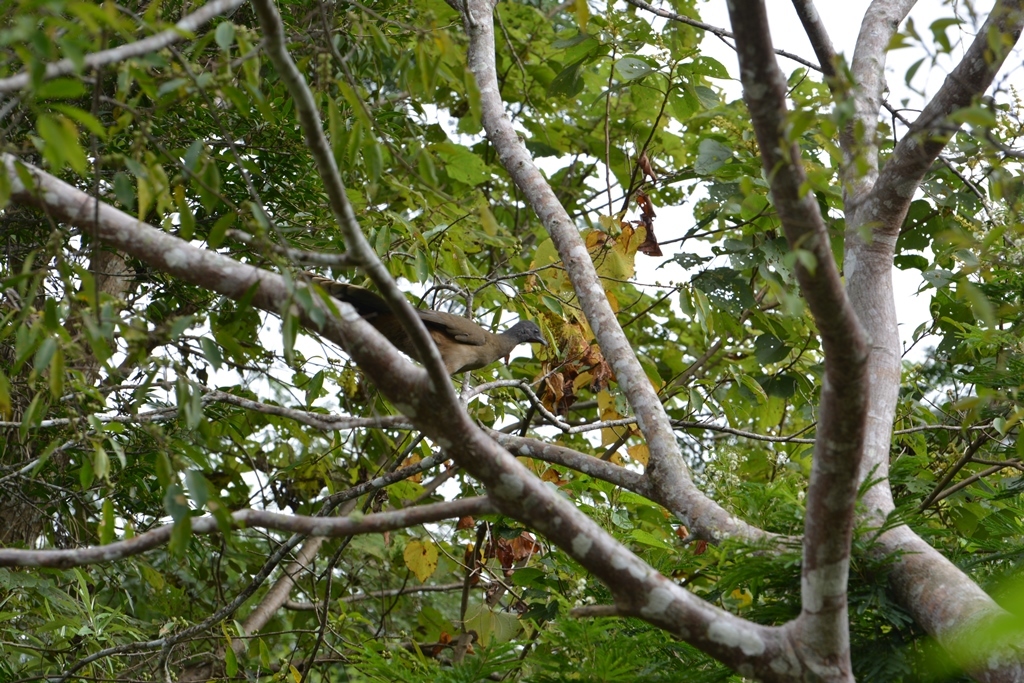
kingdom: Animalia
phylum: Chordata
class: Aves
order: Galliformes
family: Cracidae
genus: Ortalis
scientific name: Ortalis vetula
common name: Plain chachalaca
